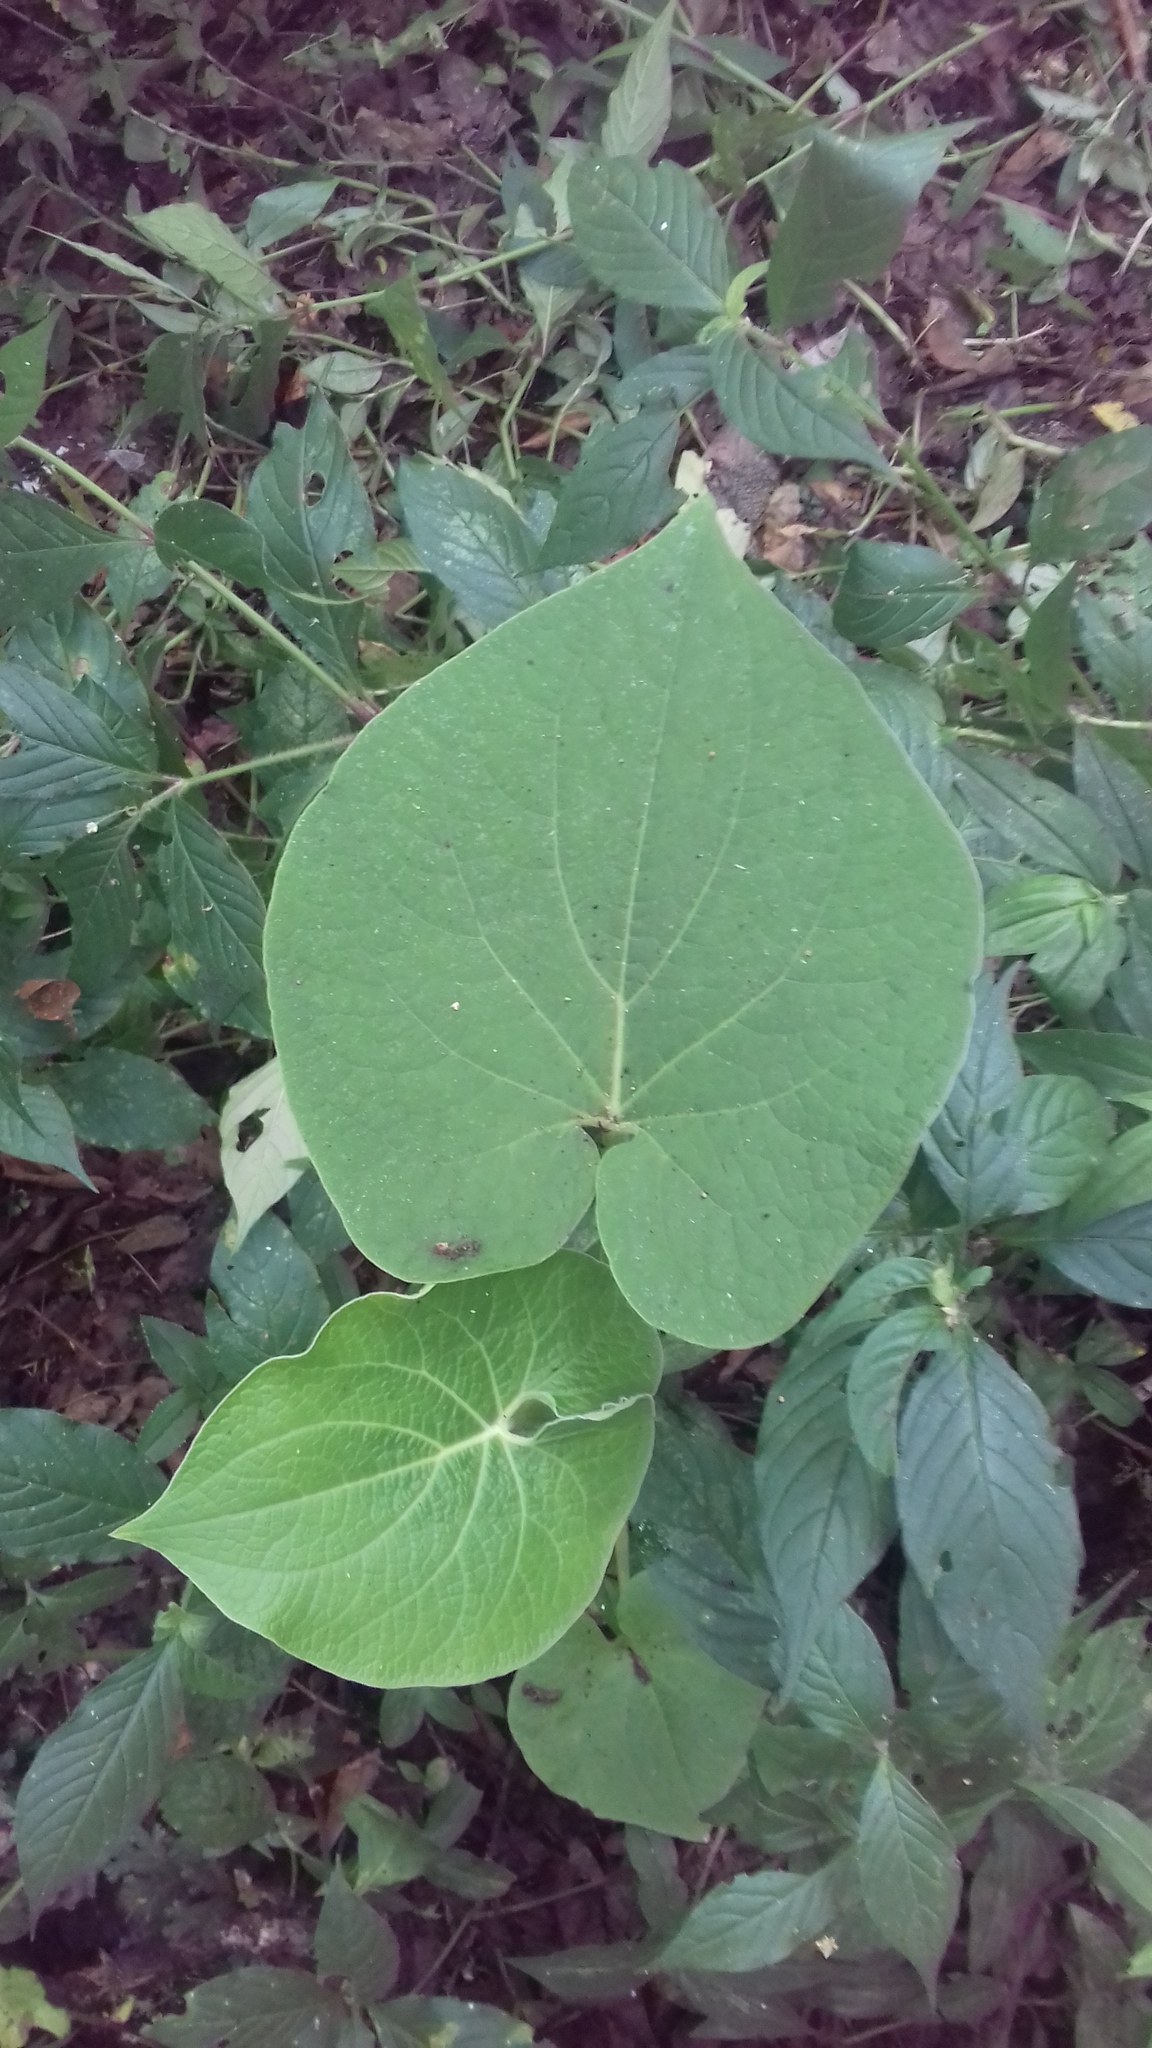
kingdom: Plantae
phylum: Tracheophyta
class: Magnoliopsida
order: Piperales
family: Piperaceae
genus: Piper
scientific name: Piper auritum
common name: Vera cruz pepper
